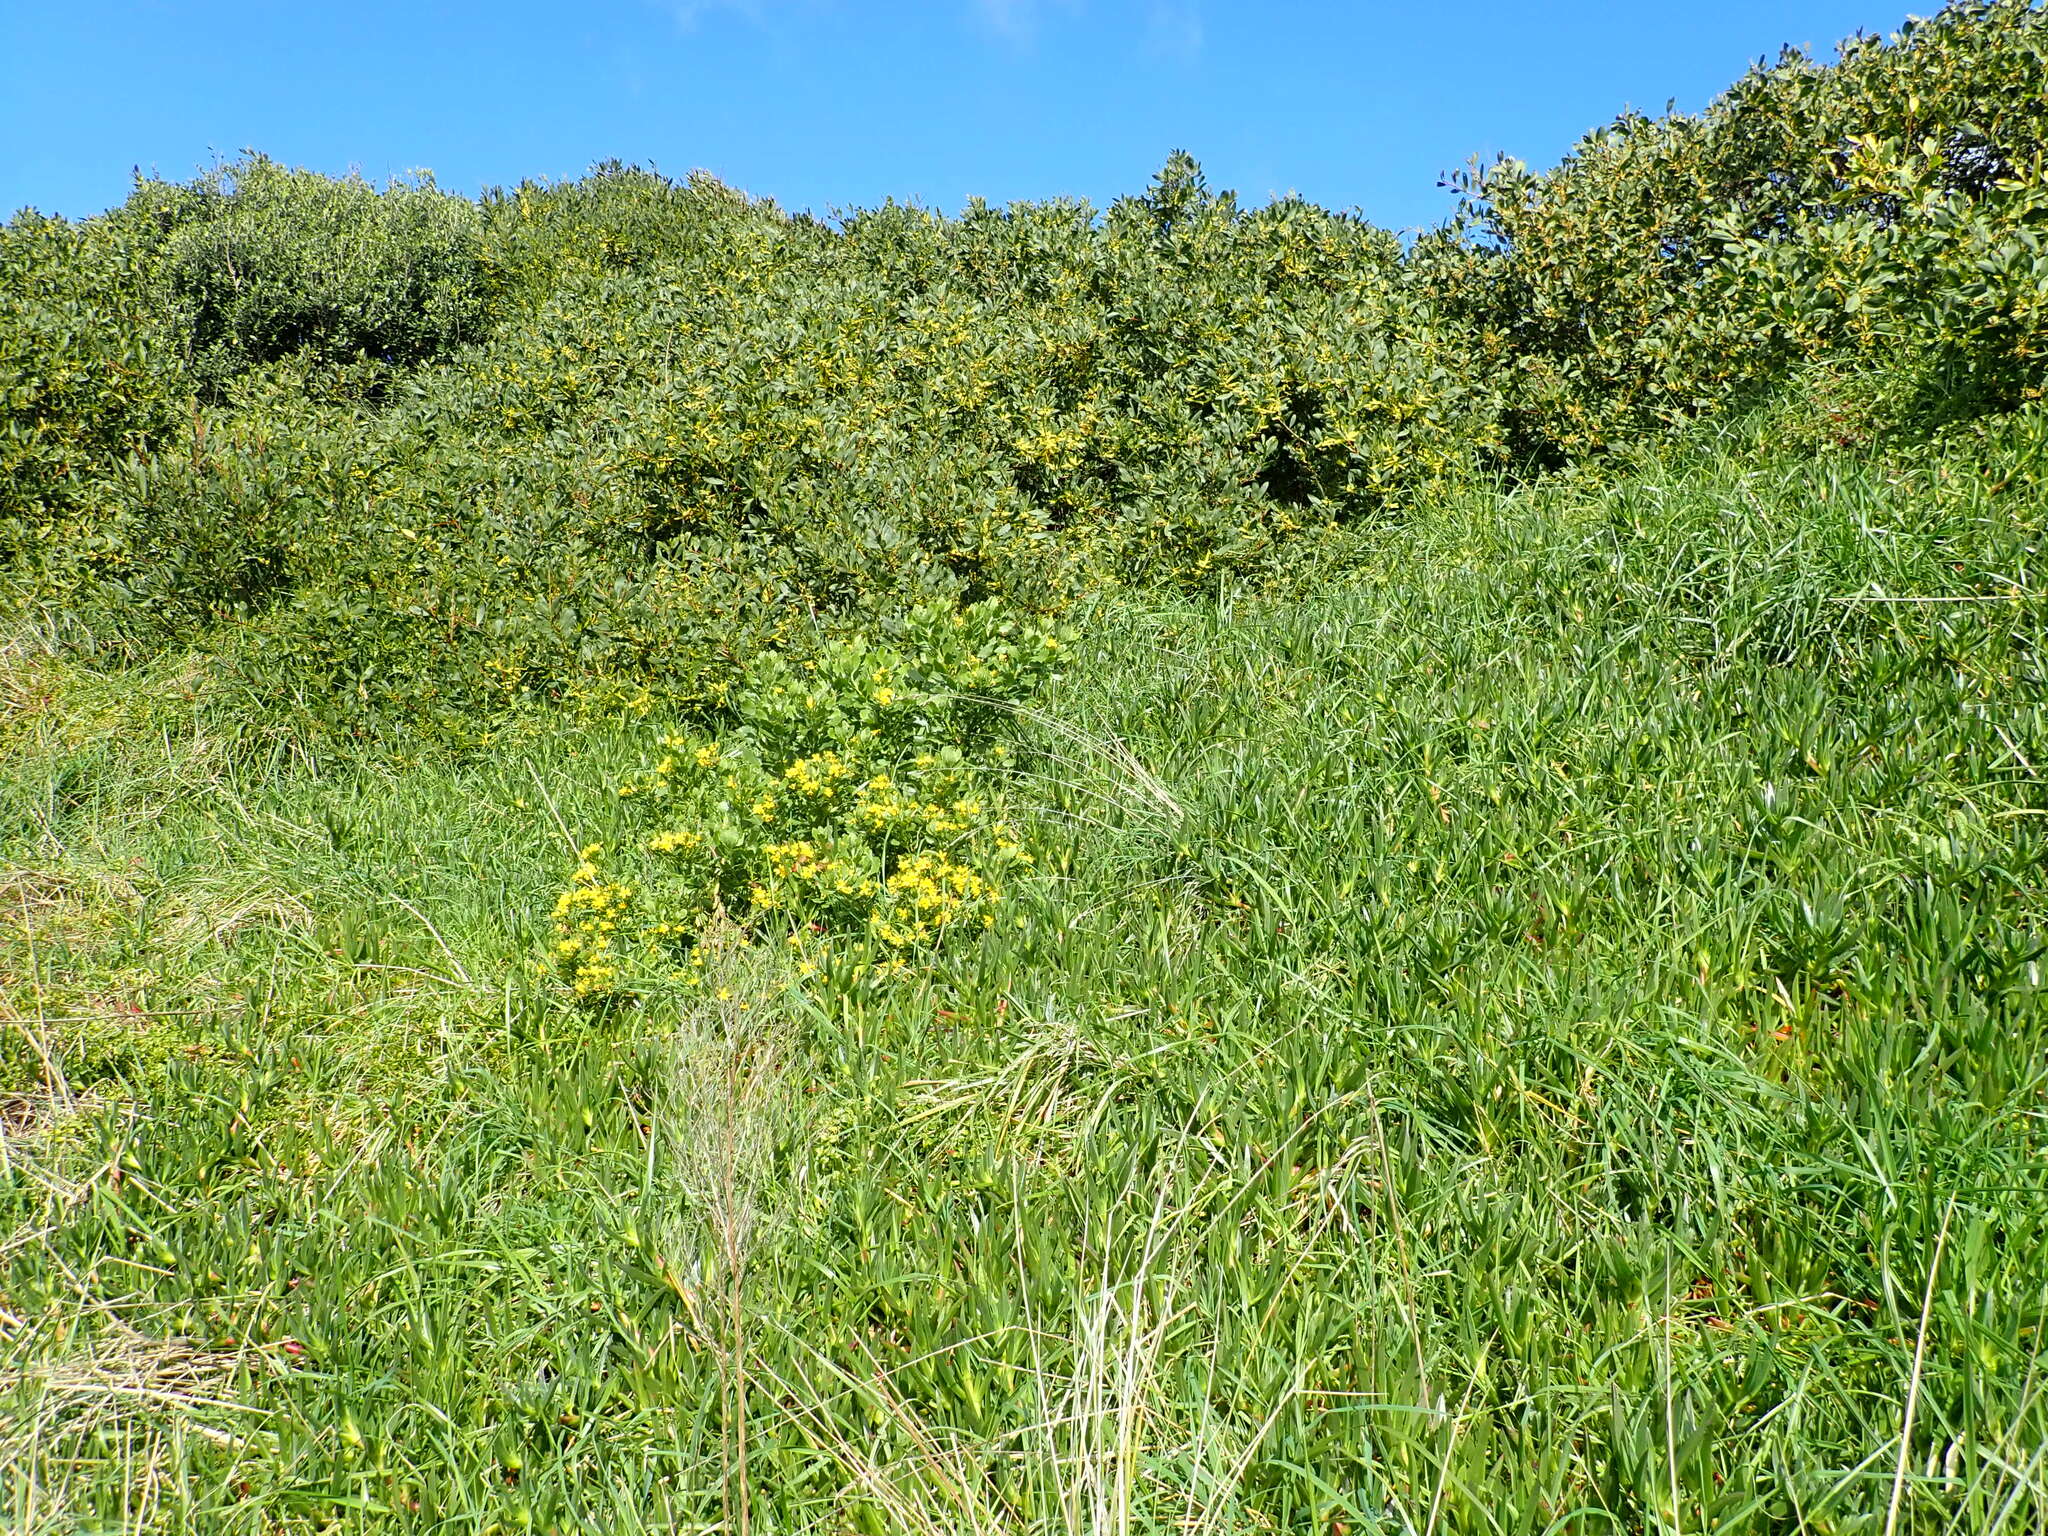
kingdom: Plantae
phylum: Tracheophyta
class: Magnoliopsida
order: Asterales
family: Asteraceae
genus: Osteospermum
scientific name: Osteospermum moniliferum
